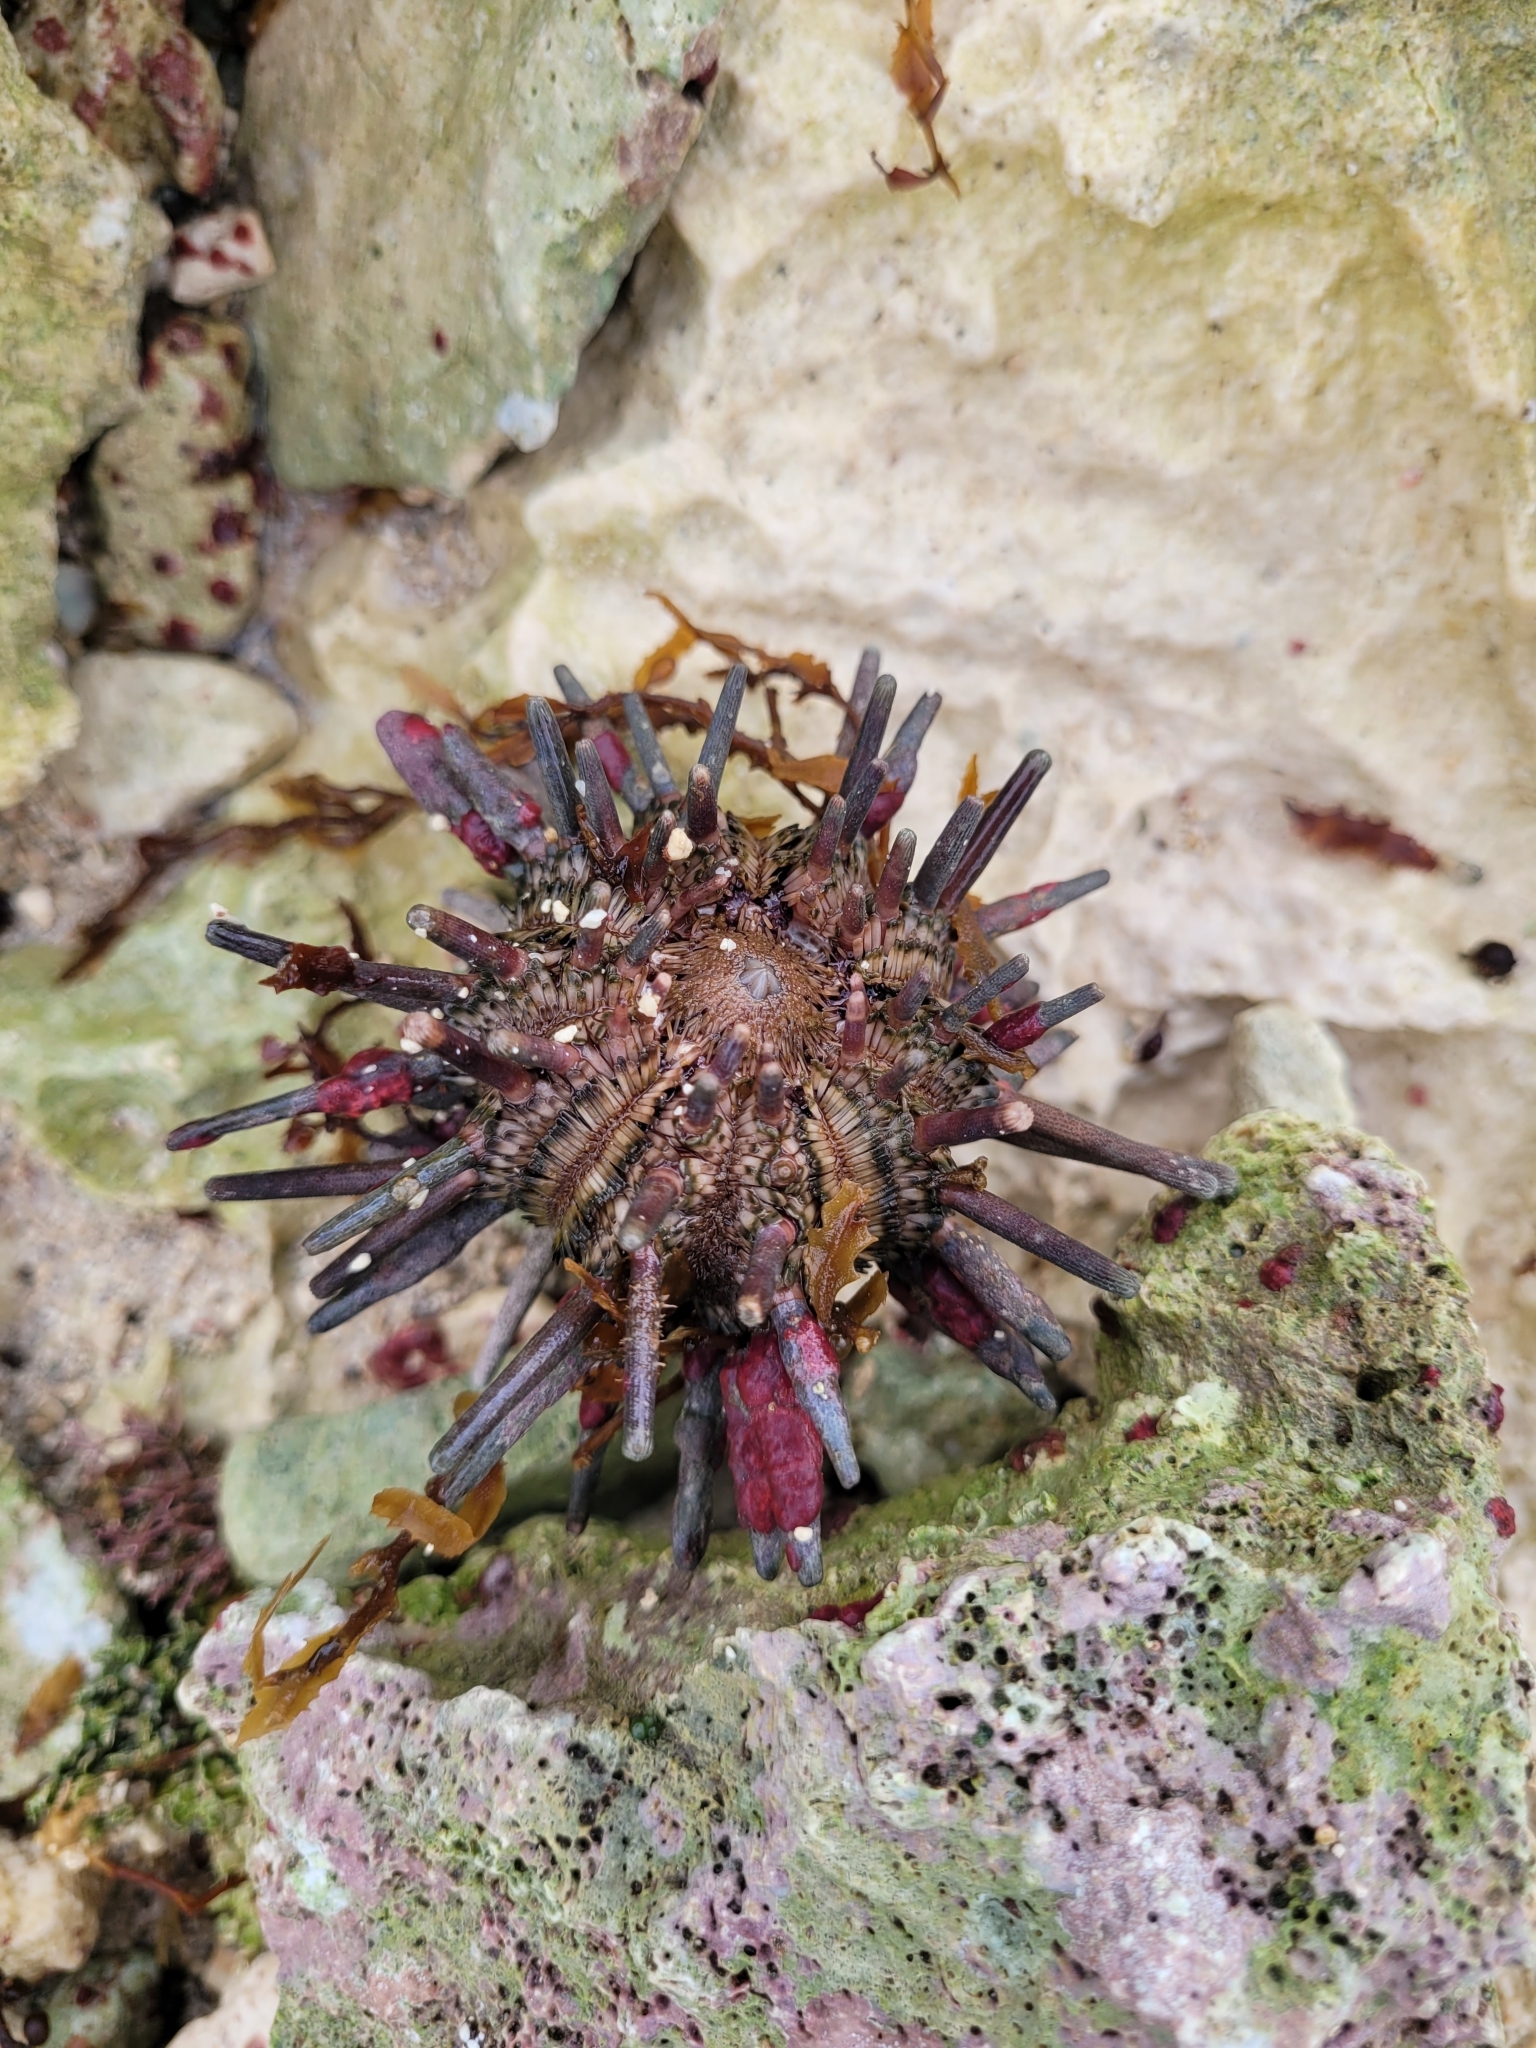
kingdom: Animalia
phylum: Echinodermata
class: Echinoidea
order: Cidaroida
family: Cidaridae
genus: Eucidaris
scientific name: Eucidaris tribuloides
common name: Slate pencil urchin
